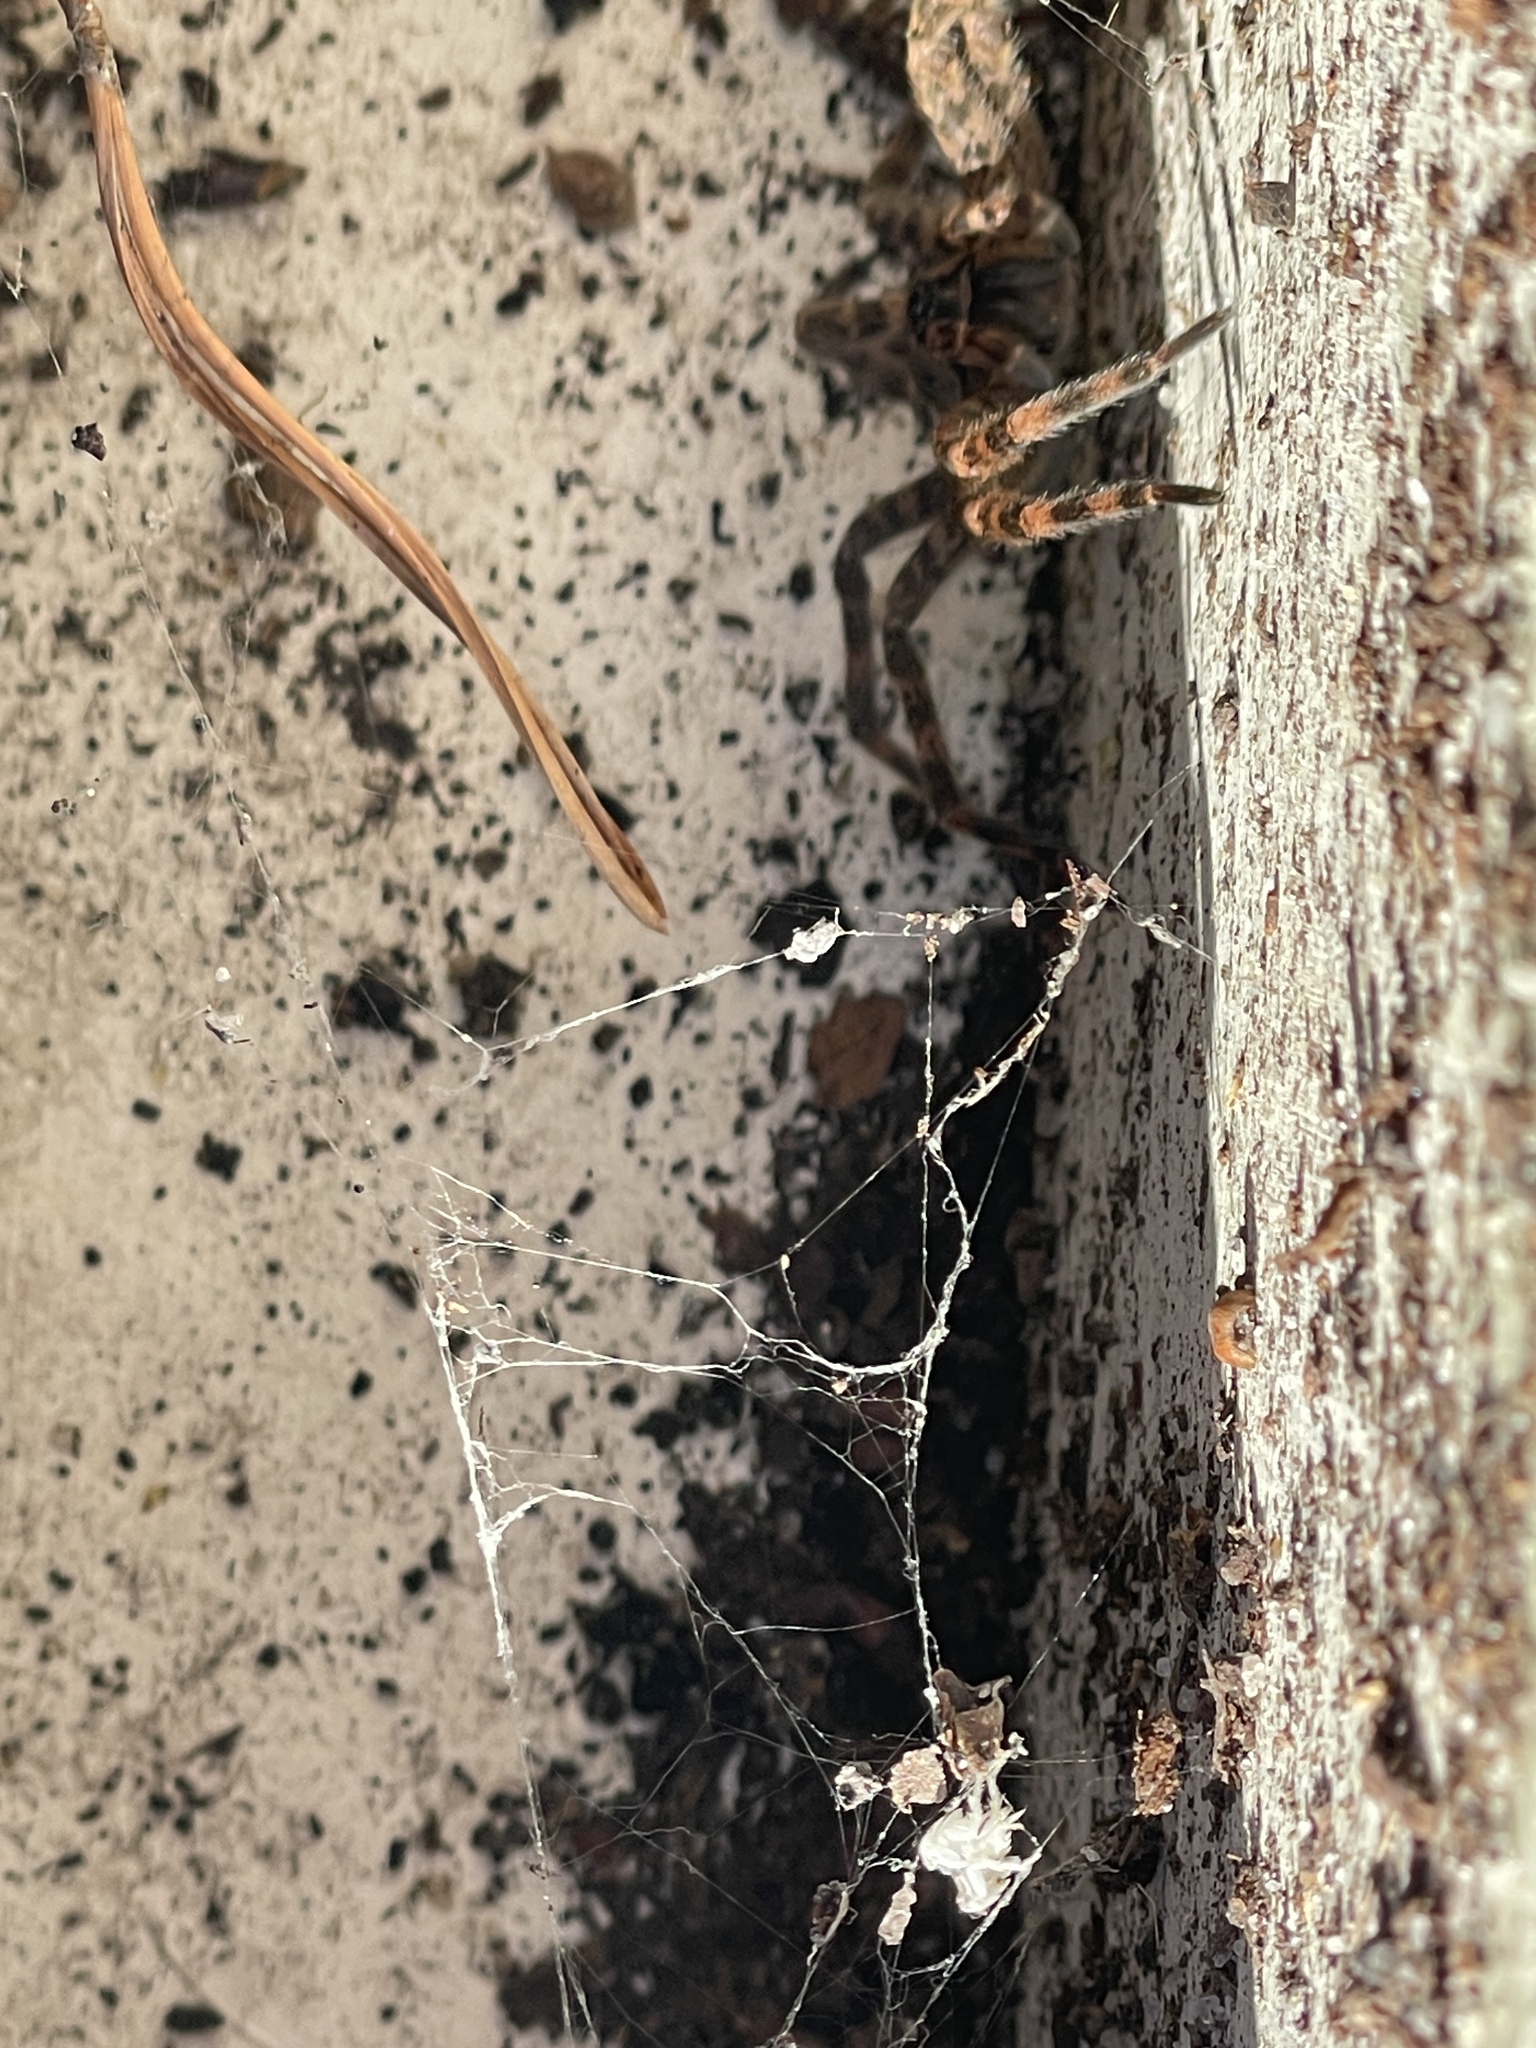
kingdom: Animalia
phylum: Arthropoda
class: Arachnida
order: Araneae
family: Pisauridae
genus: Dolomedes
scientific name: Dolomedes tenebrosus
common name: Dark fishing spider
